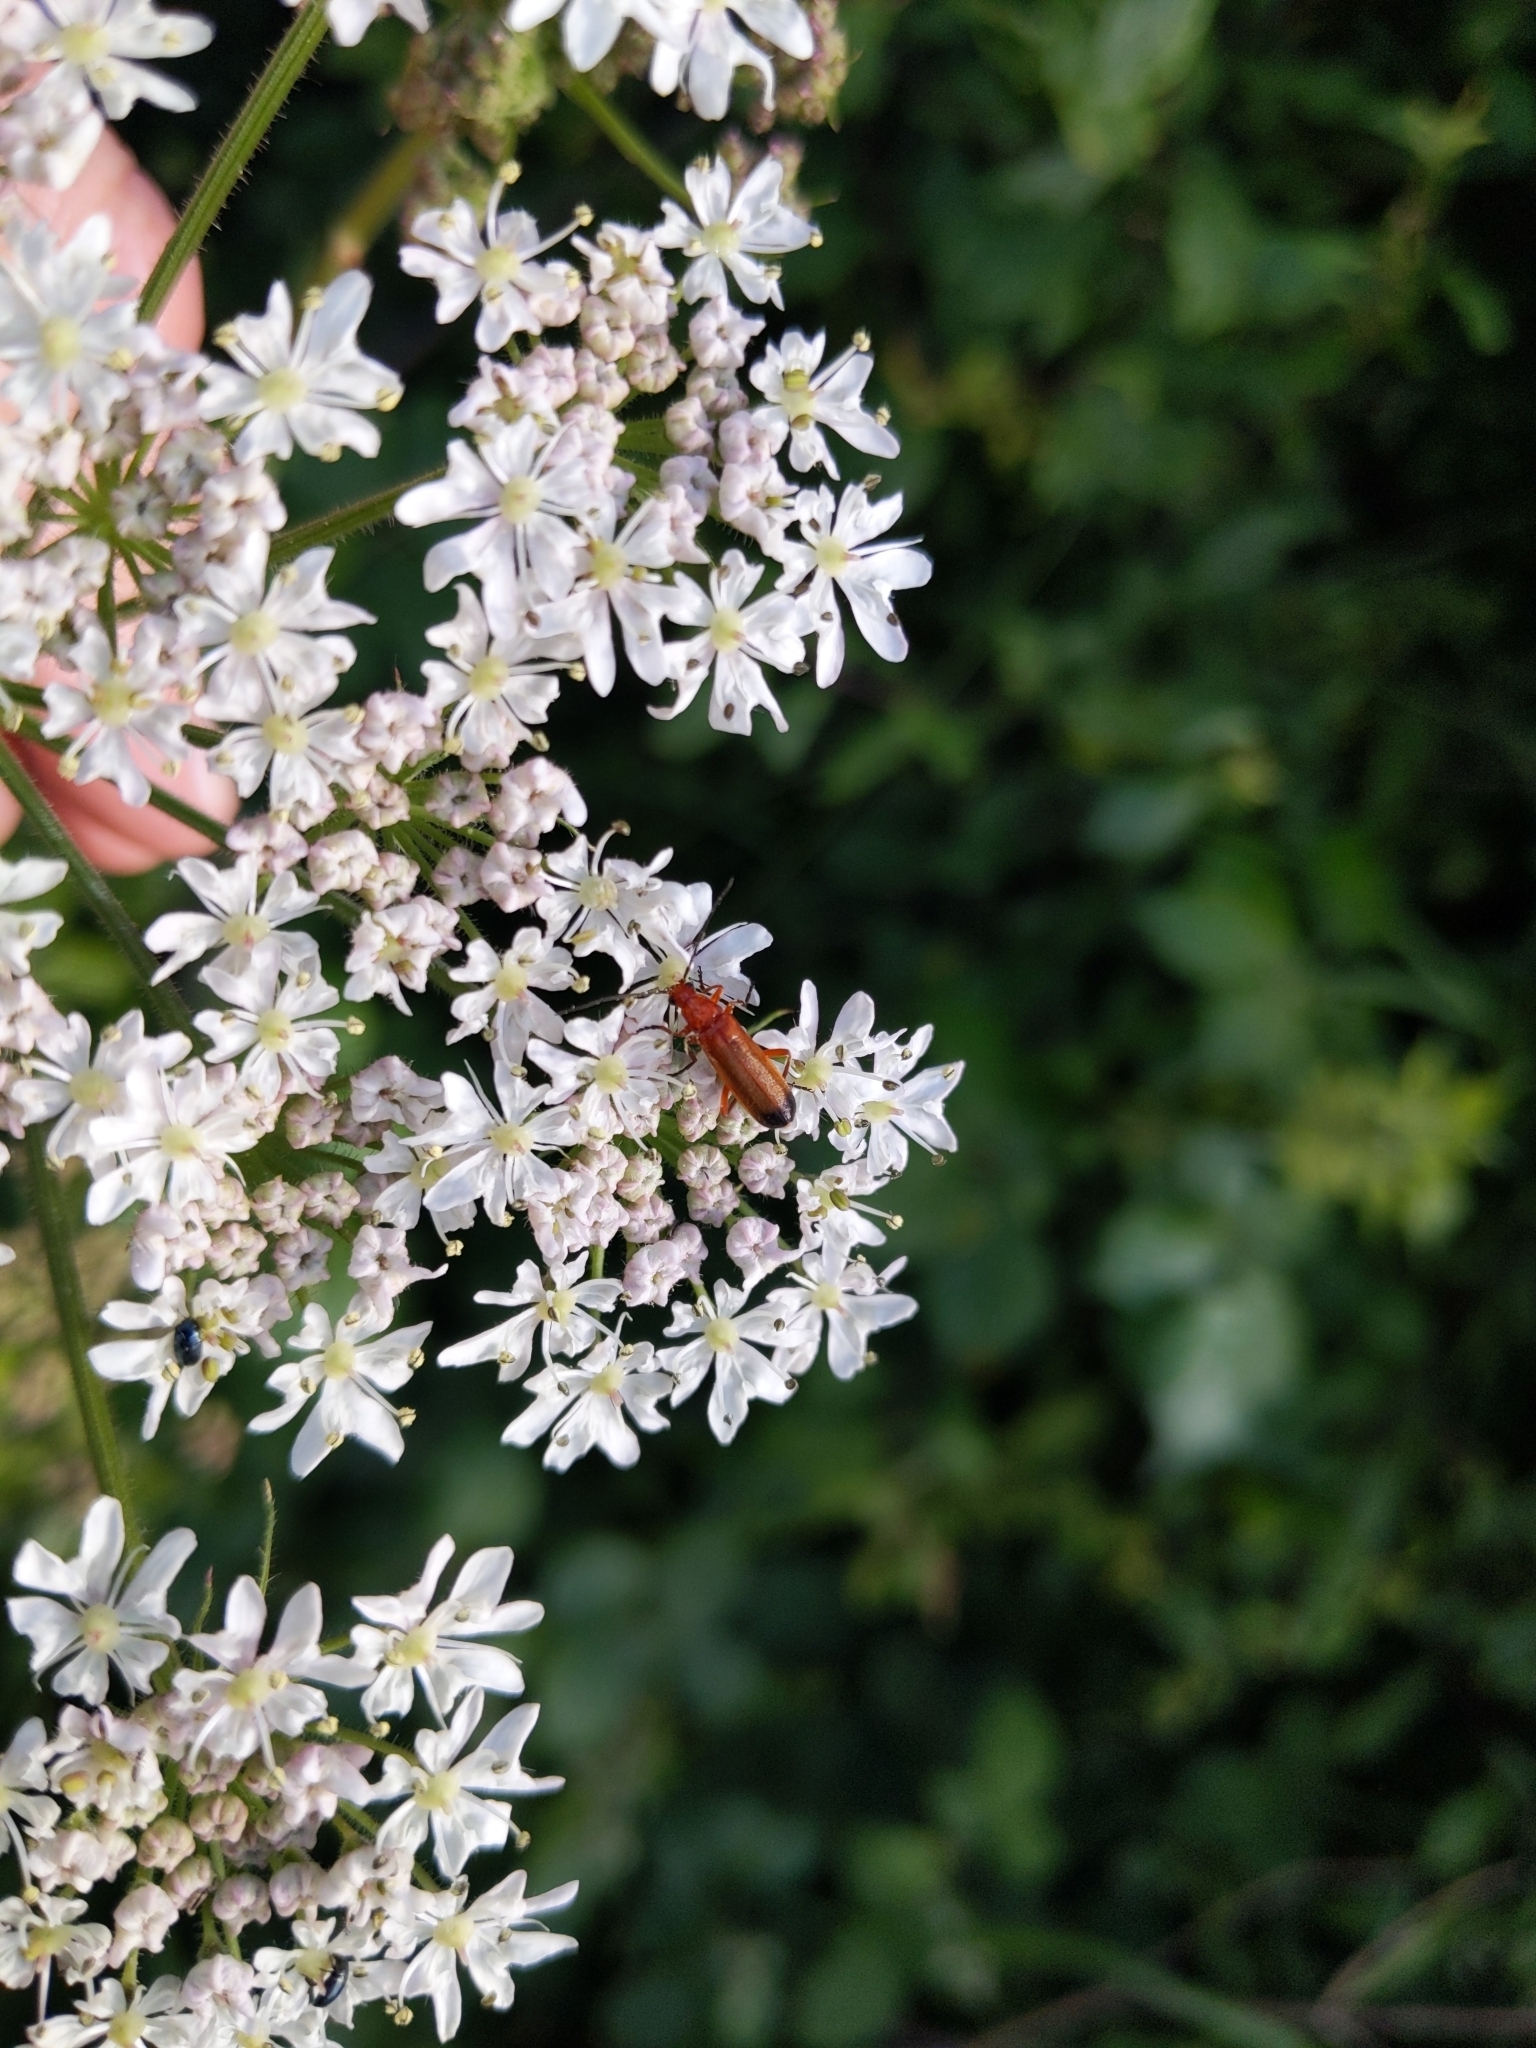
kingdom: Animalia
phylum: Arthropoda
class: Insecta
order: Coleoptera
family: Cantharidae
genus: Rhagonycha
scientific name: Rhagonycha fulva
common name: Common red soldier beetle
